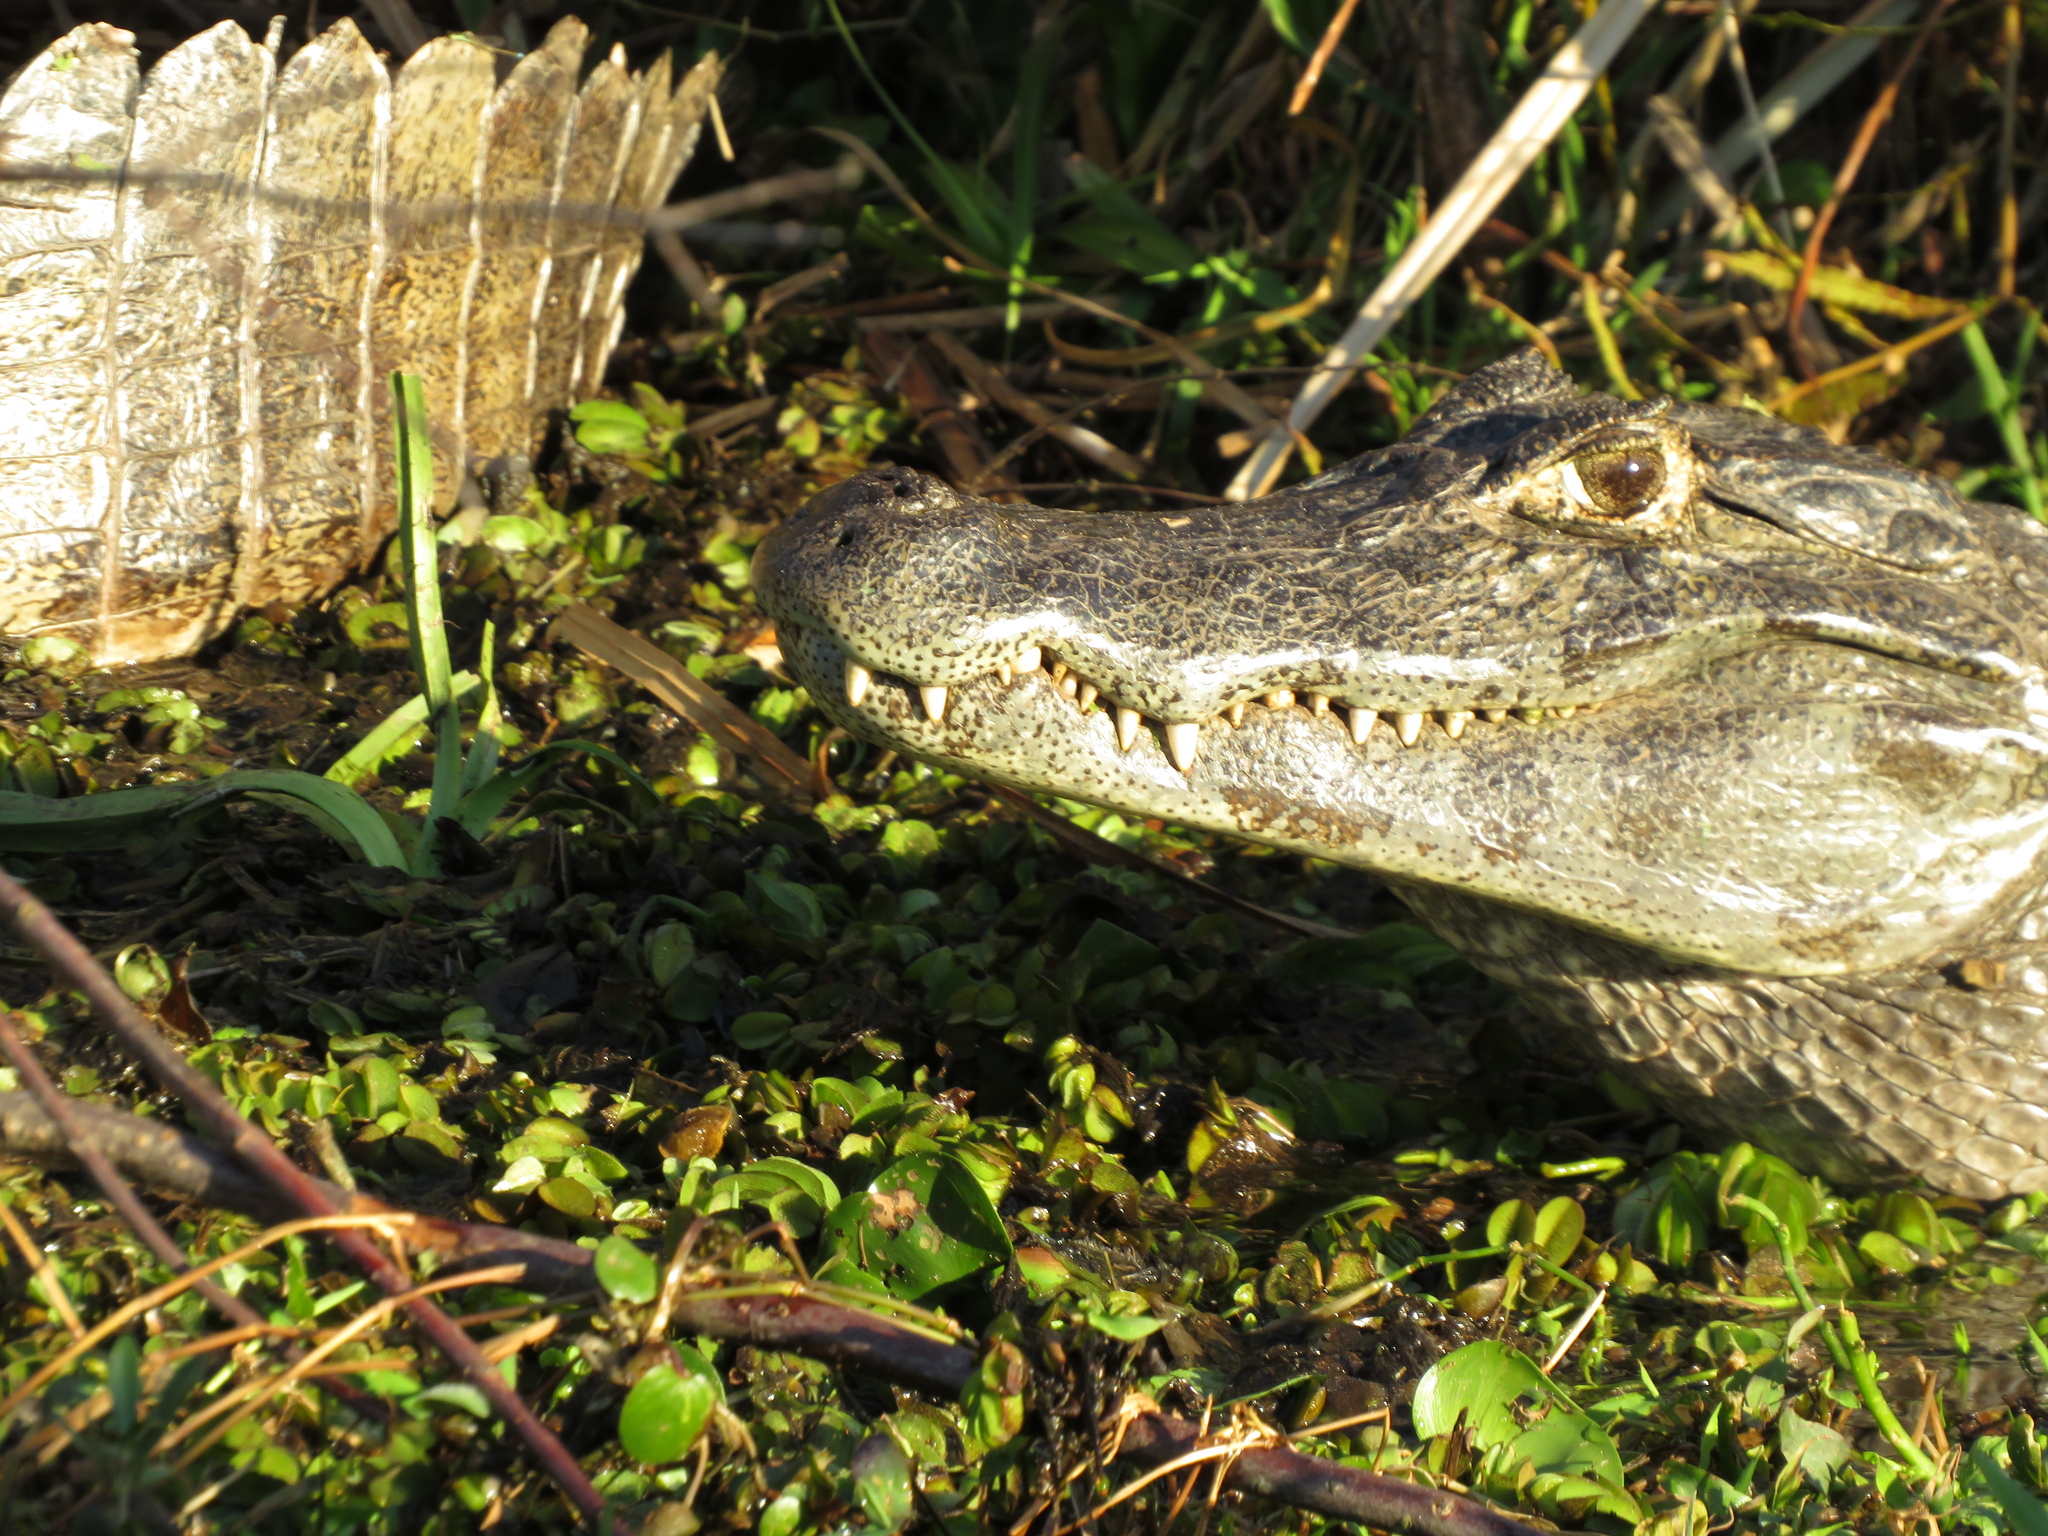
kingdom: Animalia
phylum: Chordata
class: Crocodylia
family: Alligatoridae
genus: Caiman
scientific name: Caiman yacare
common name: Yacare caiman
